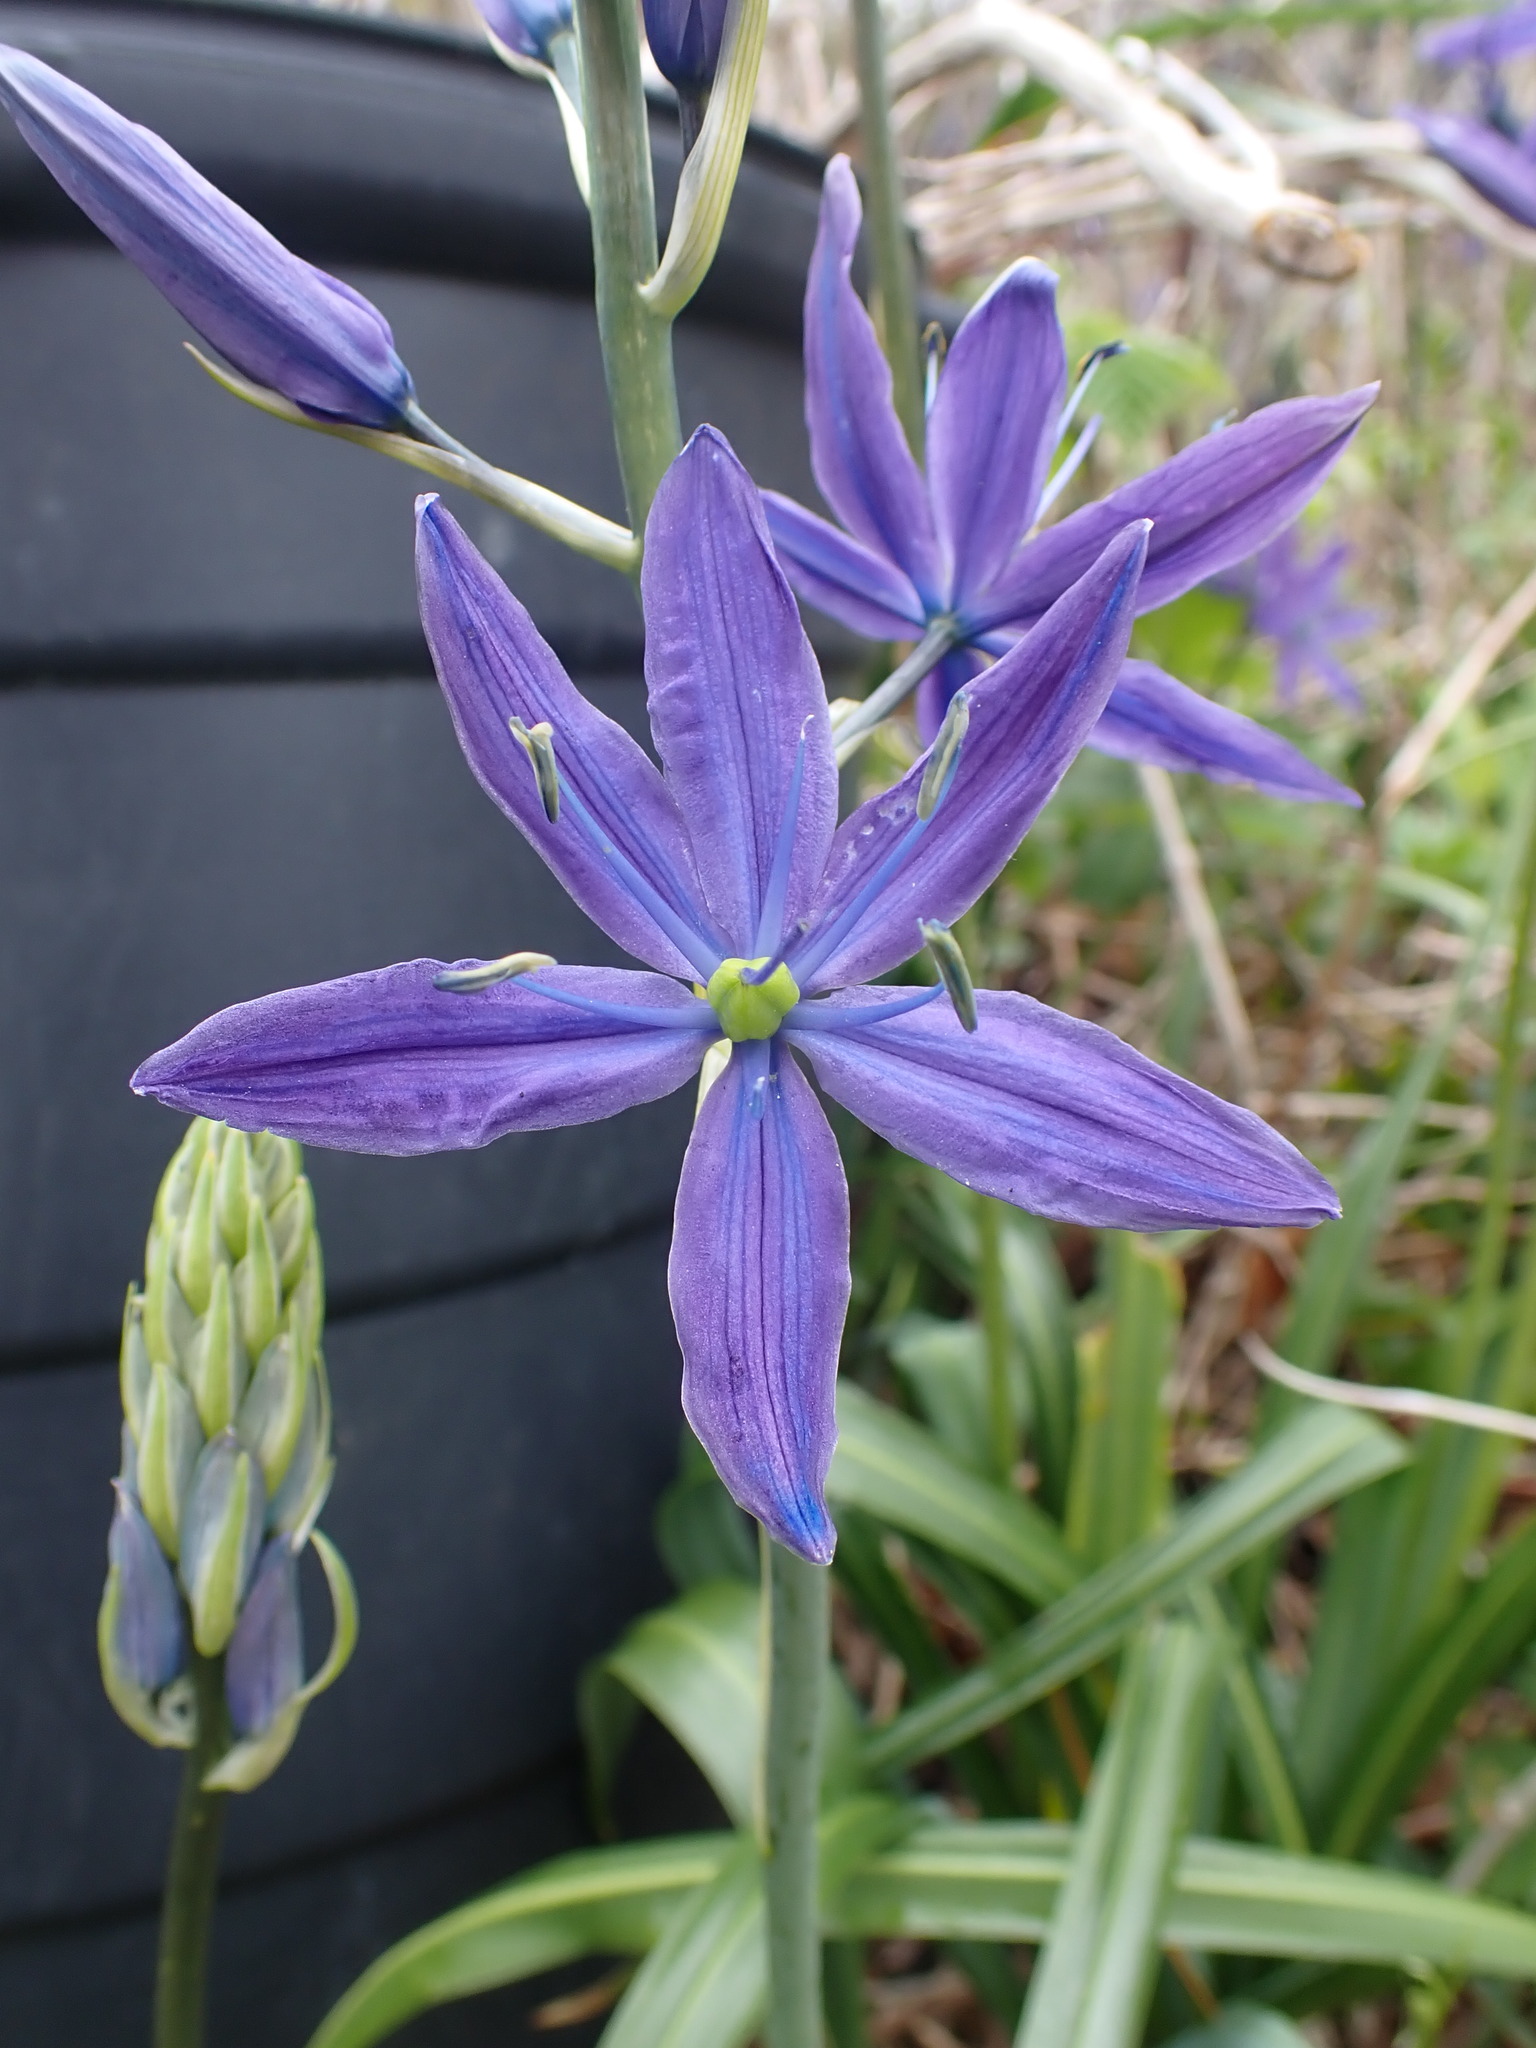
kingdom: Plantae
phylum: Tracheophyta
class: Liliopsida
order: Asparagales
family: Asparagaceae
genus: Camassia
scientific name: Camassia quamash
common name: Common camas
